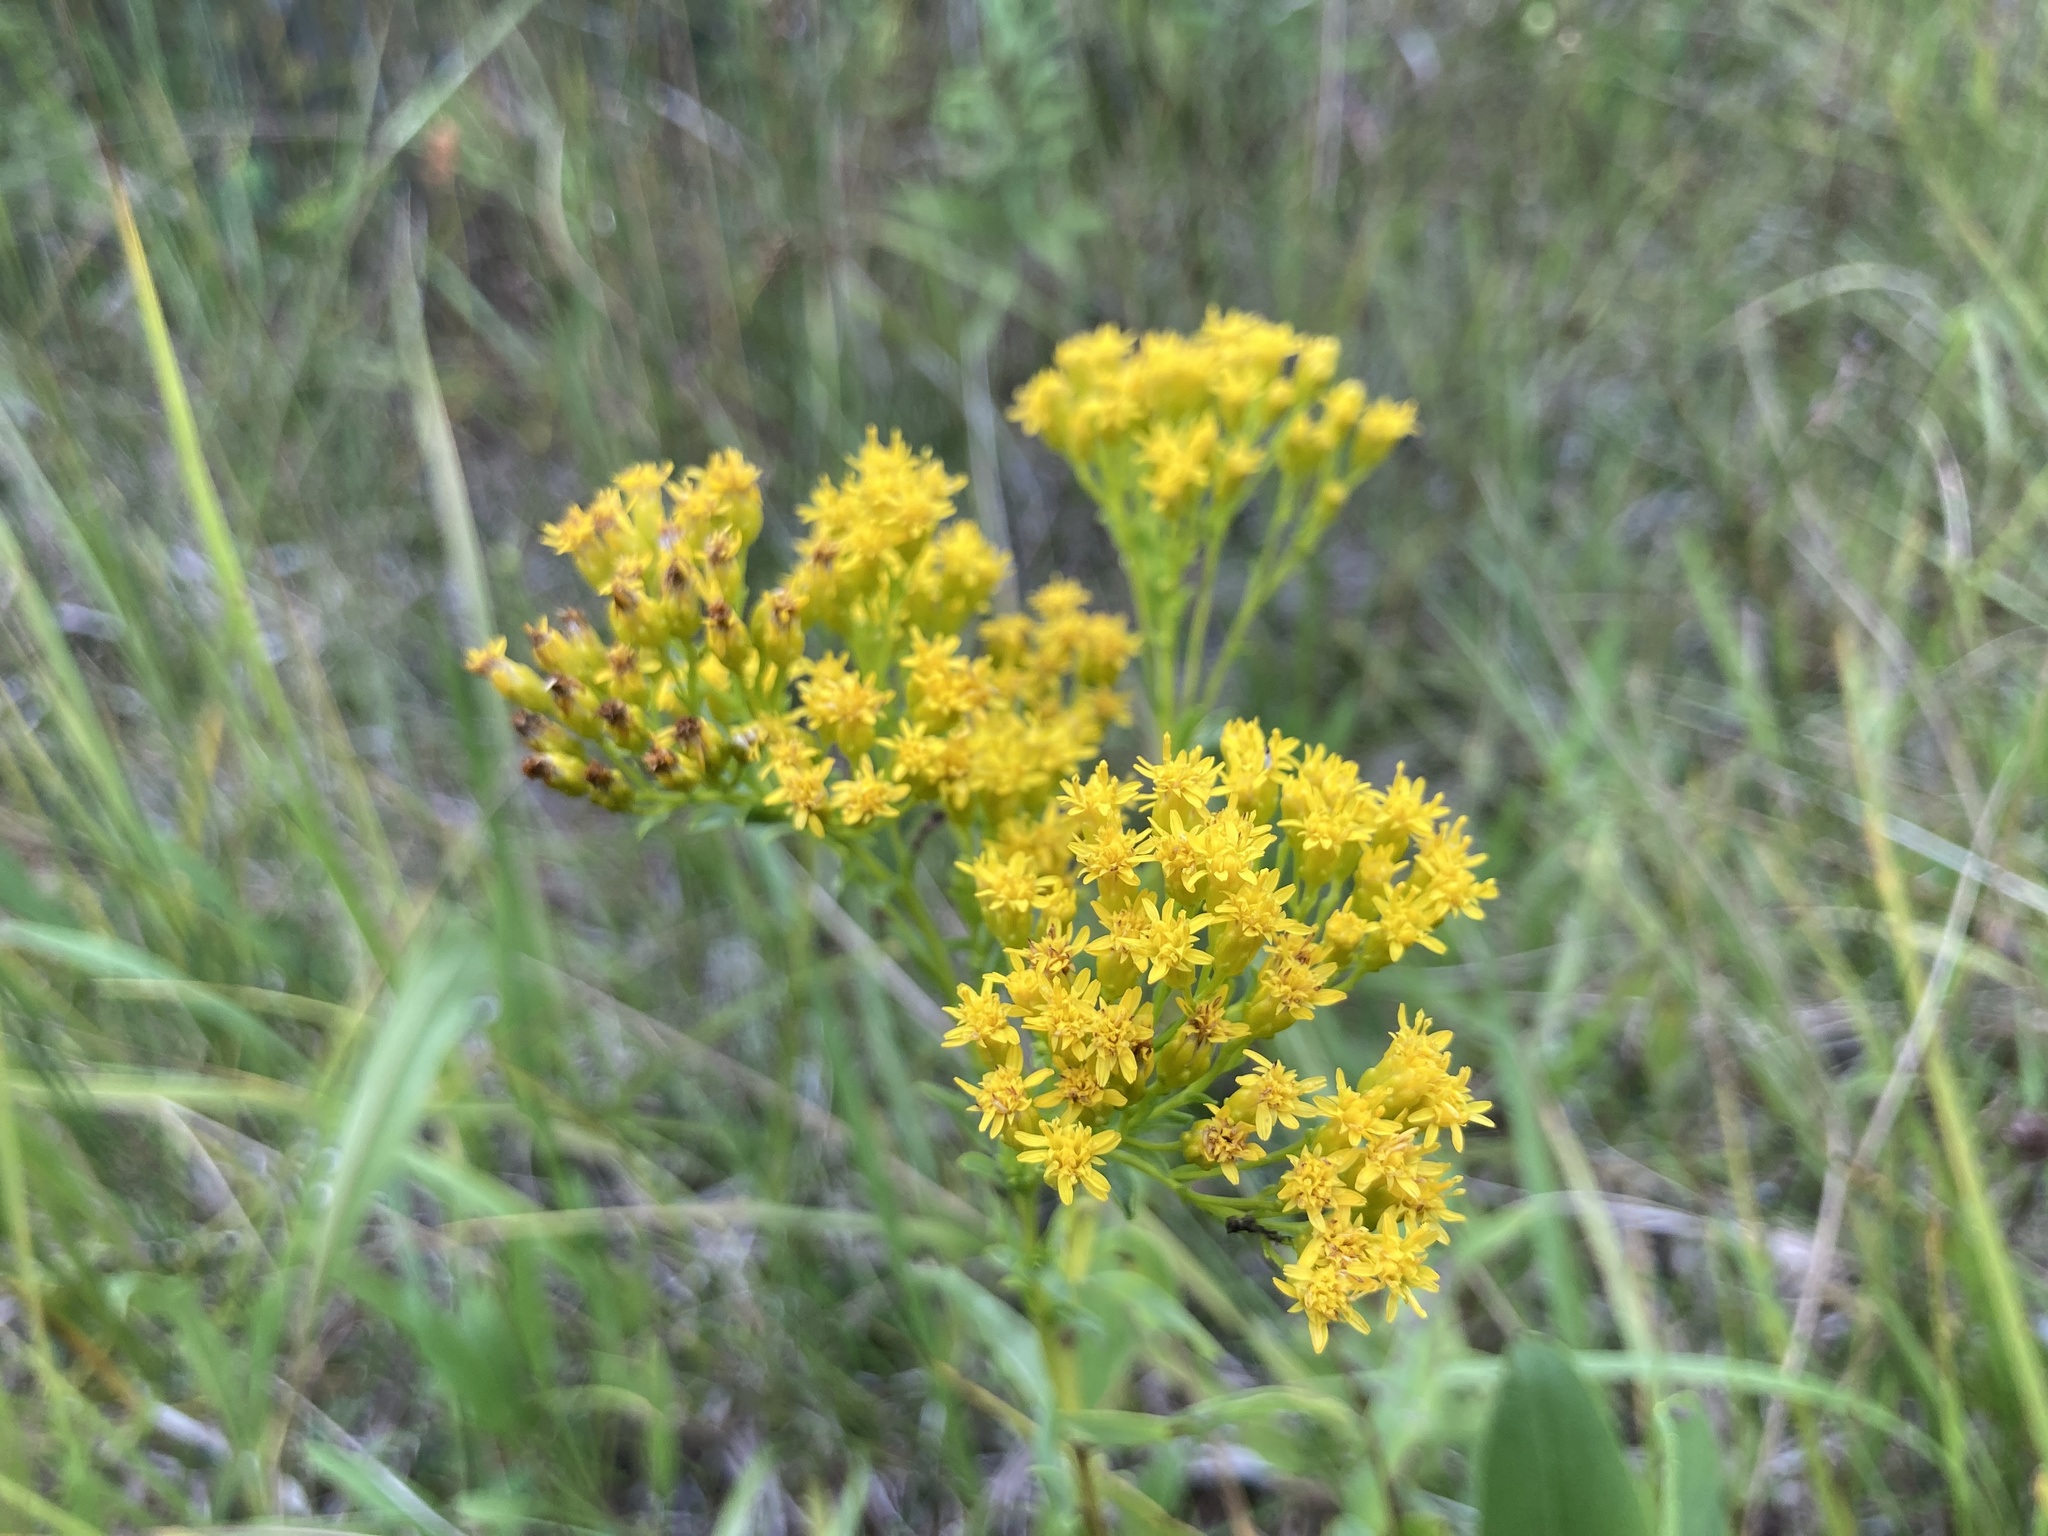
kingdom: Plantae
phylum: Tracheophyta
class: Magnoliopsida
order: Asterales
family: Asteraceae
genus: Solidago
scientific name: Solidago ohioensis
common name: Ohio goldenrod
